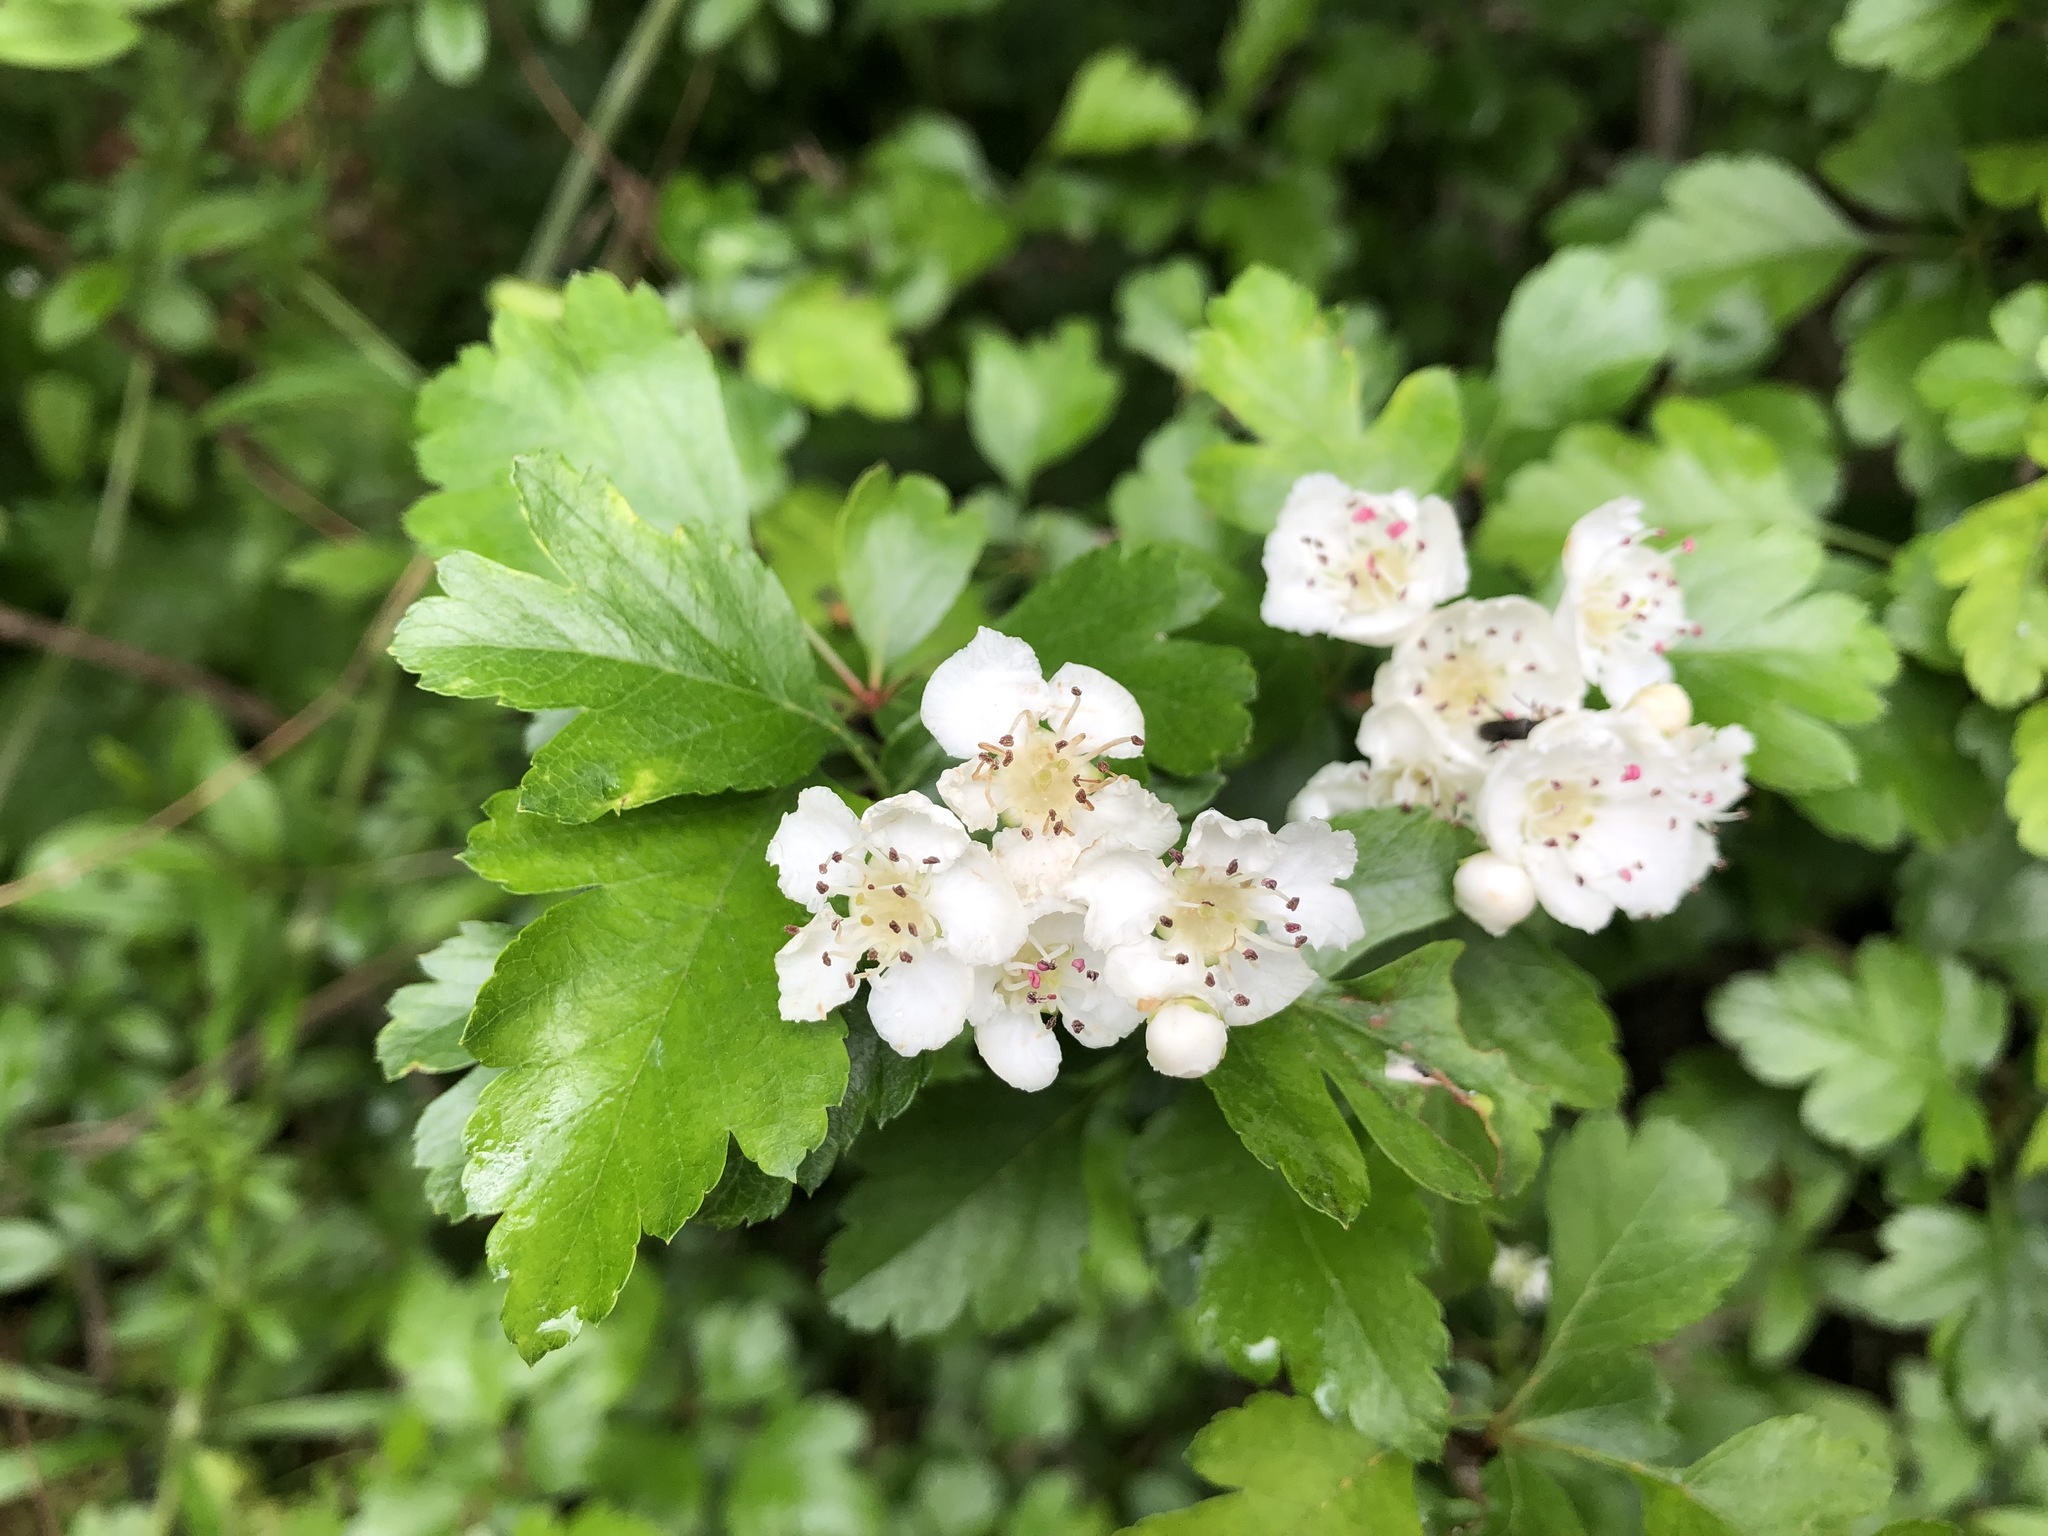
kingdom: Plantae
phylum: Tracheophyta
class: Magnoliopsida
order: Rosales
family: Rosaceae
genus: Crataegus
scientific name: Crataegus monogyna
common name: Hawthorn
